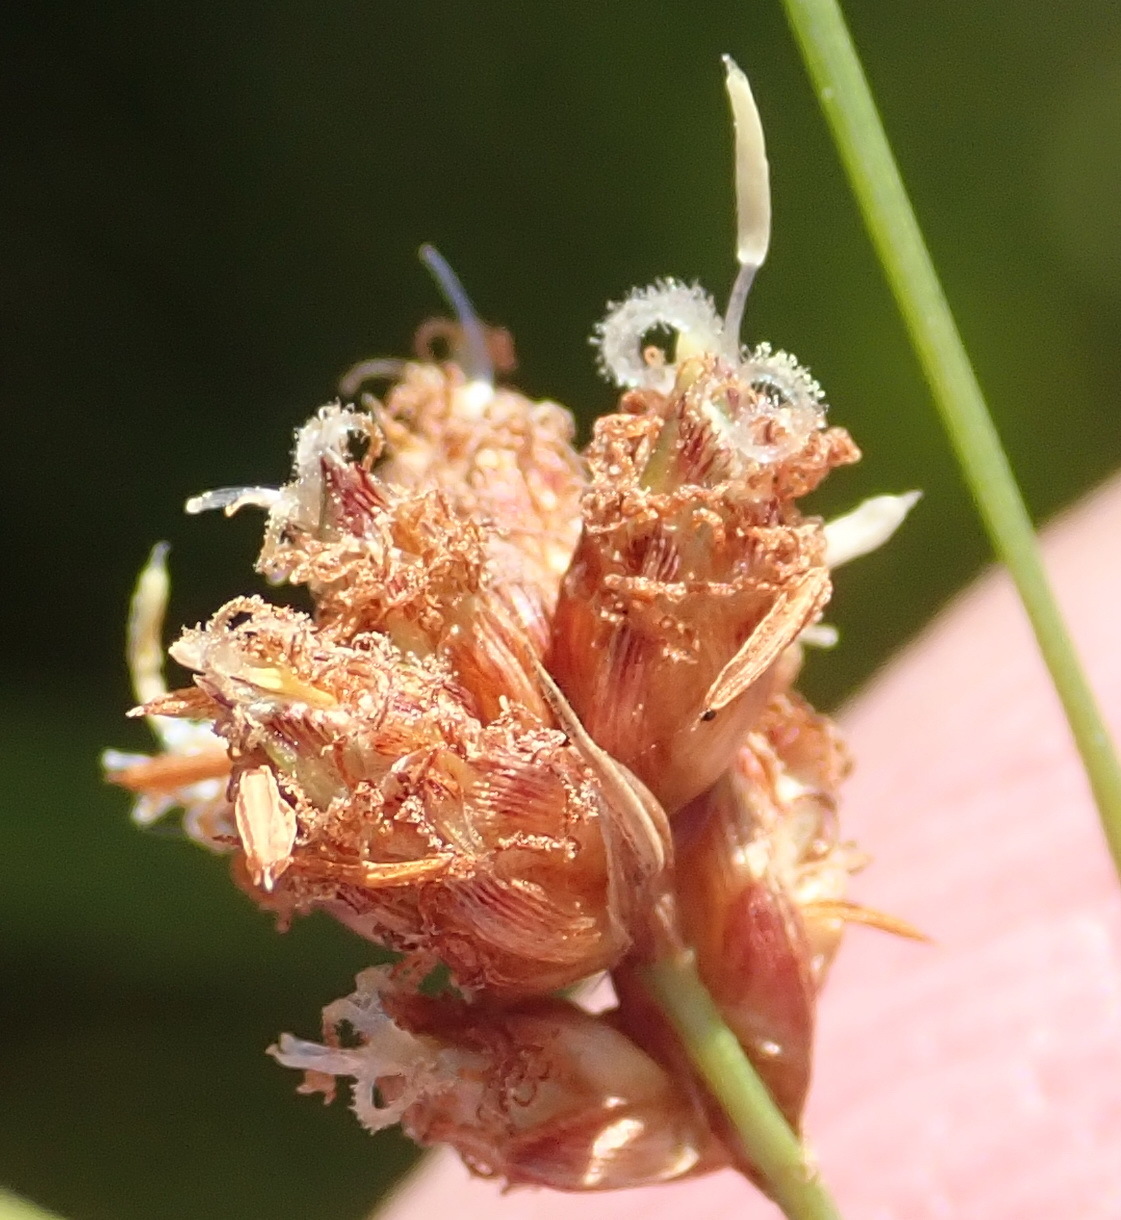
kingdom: Plantae
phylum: Tracheophyta
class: Liliopsida
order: Poales
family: Cyperaceae
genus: Ficinia
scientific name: Ficinia bulbosa
